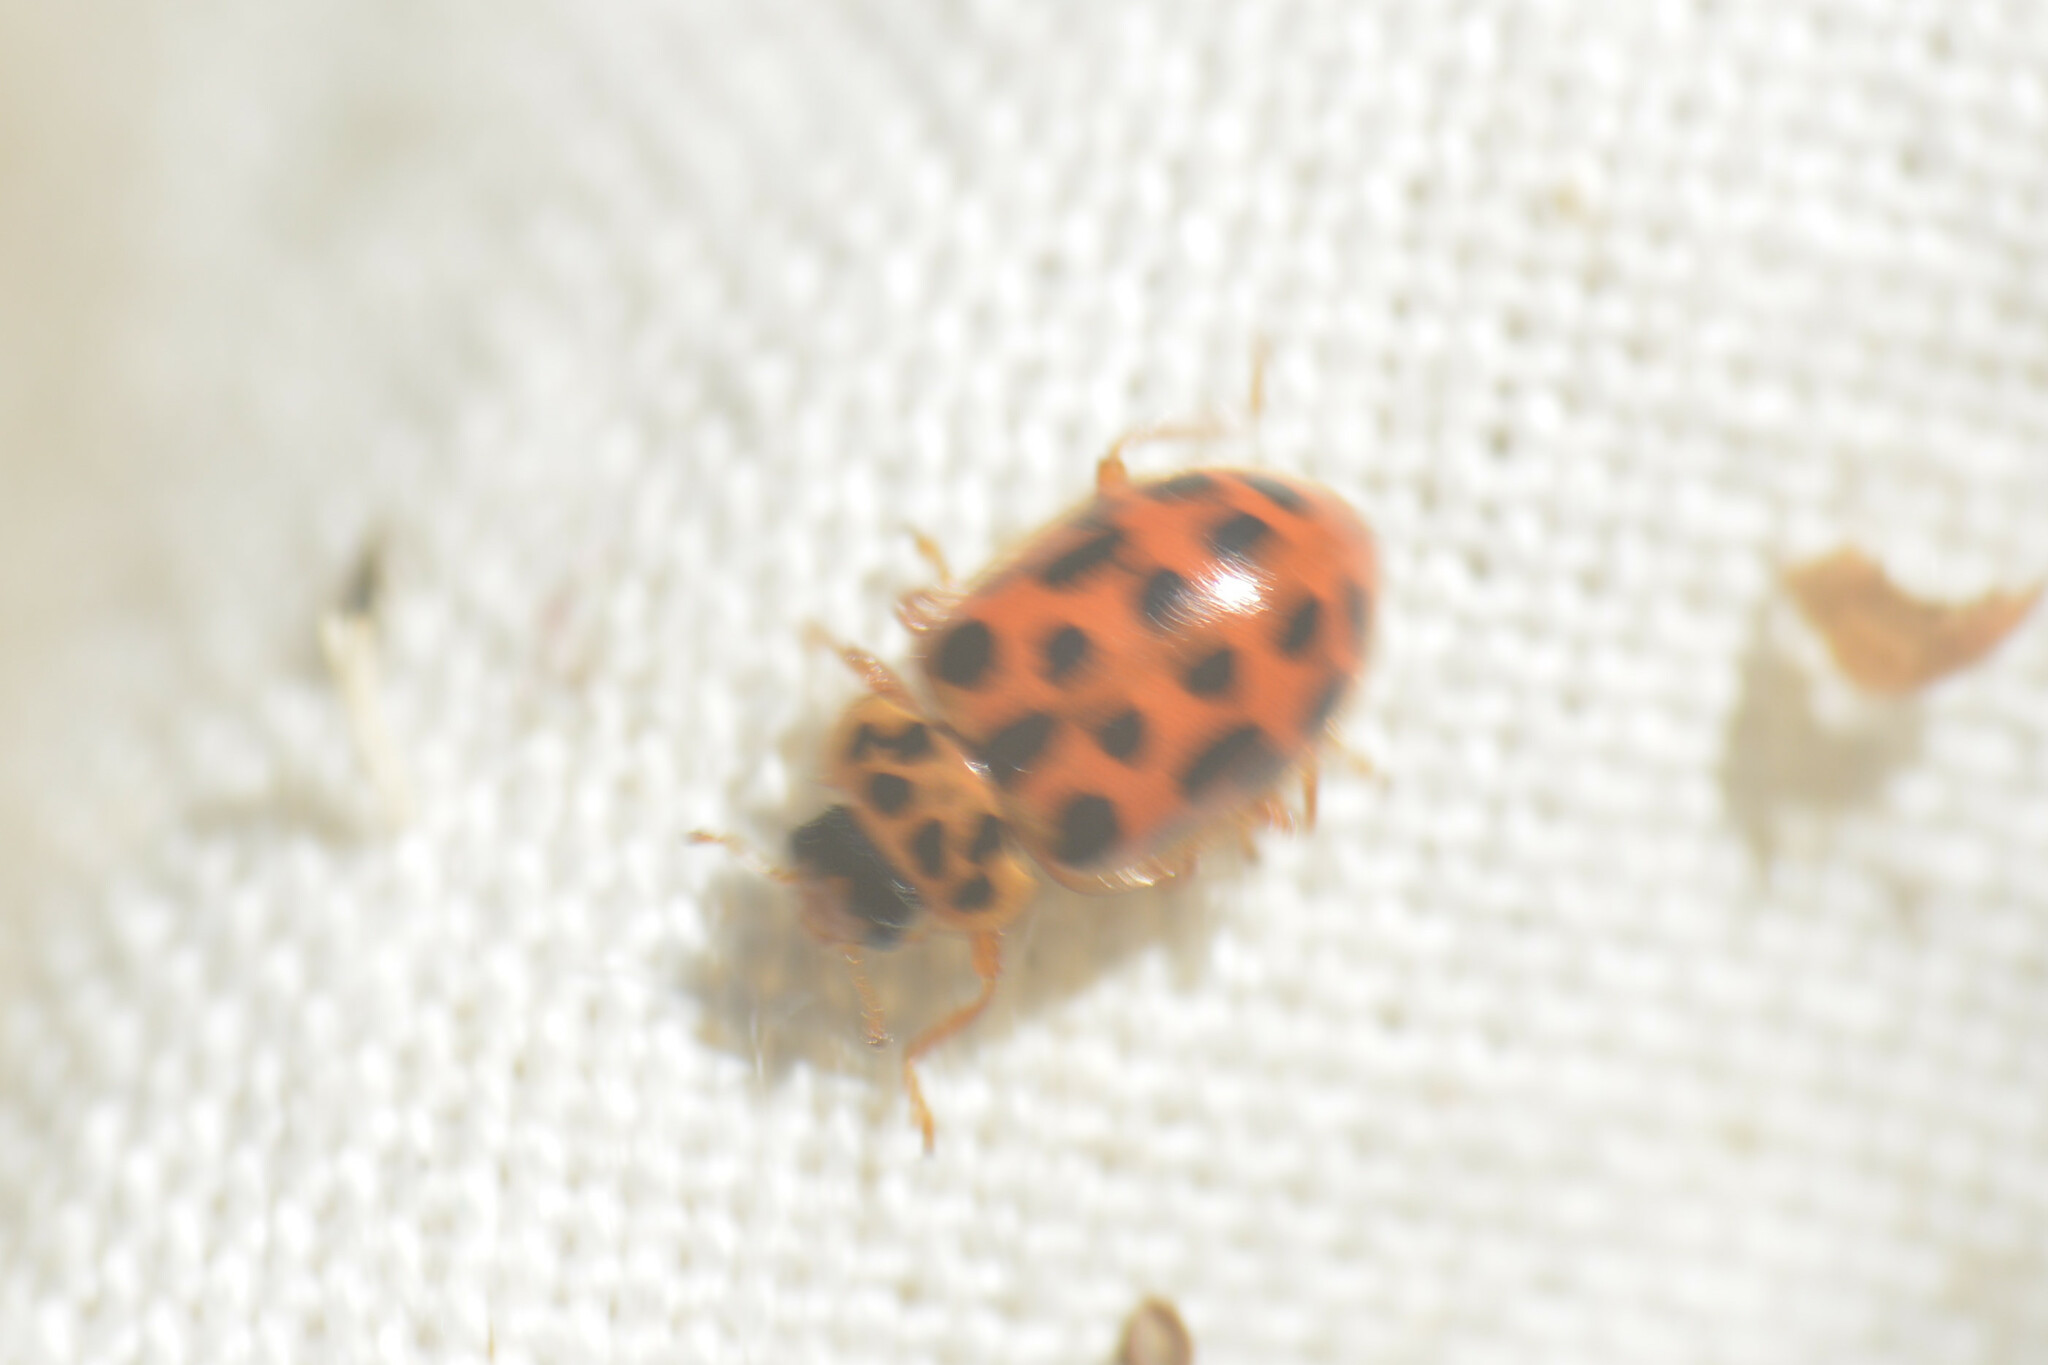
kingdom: Animalia
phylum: Arthropoda
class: Insecta
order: Coleoptera
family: Coccinellidae
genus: Anisosticta
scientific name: Anisosticta novemdecimpunctata
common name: Water ladybird
